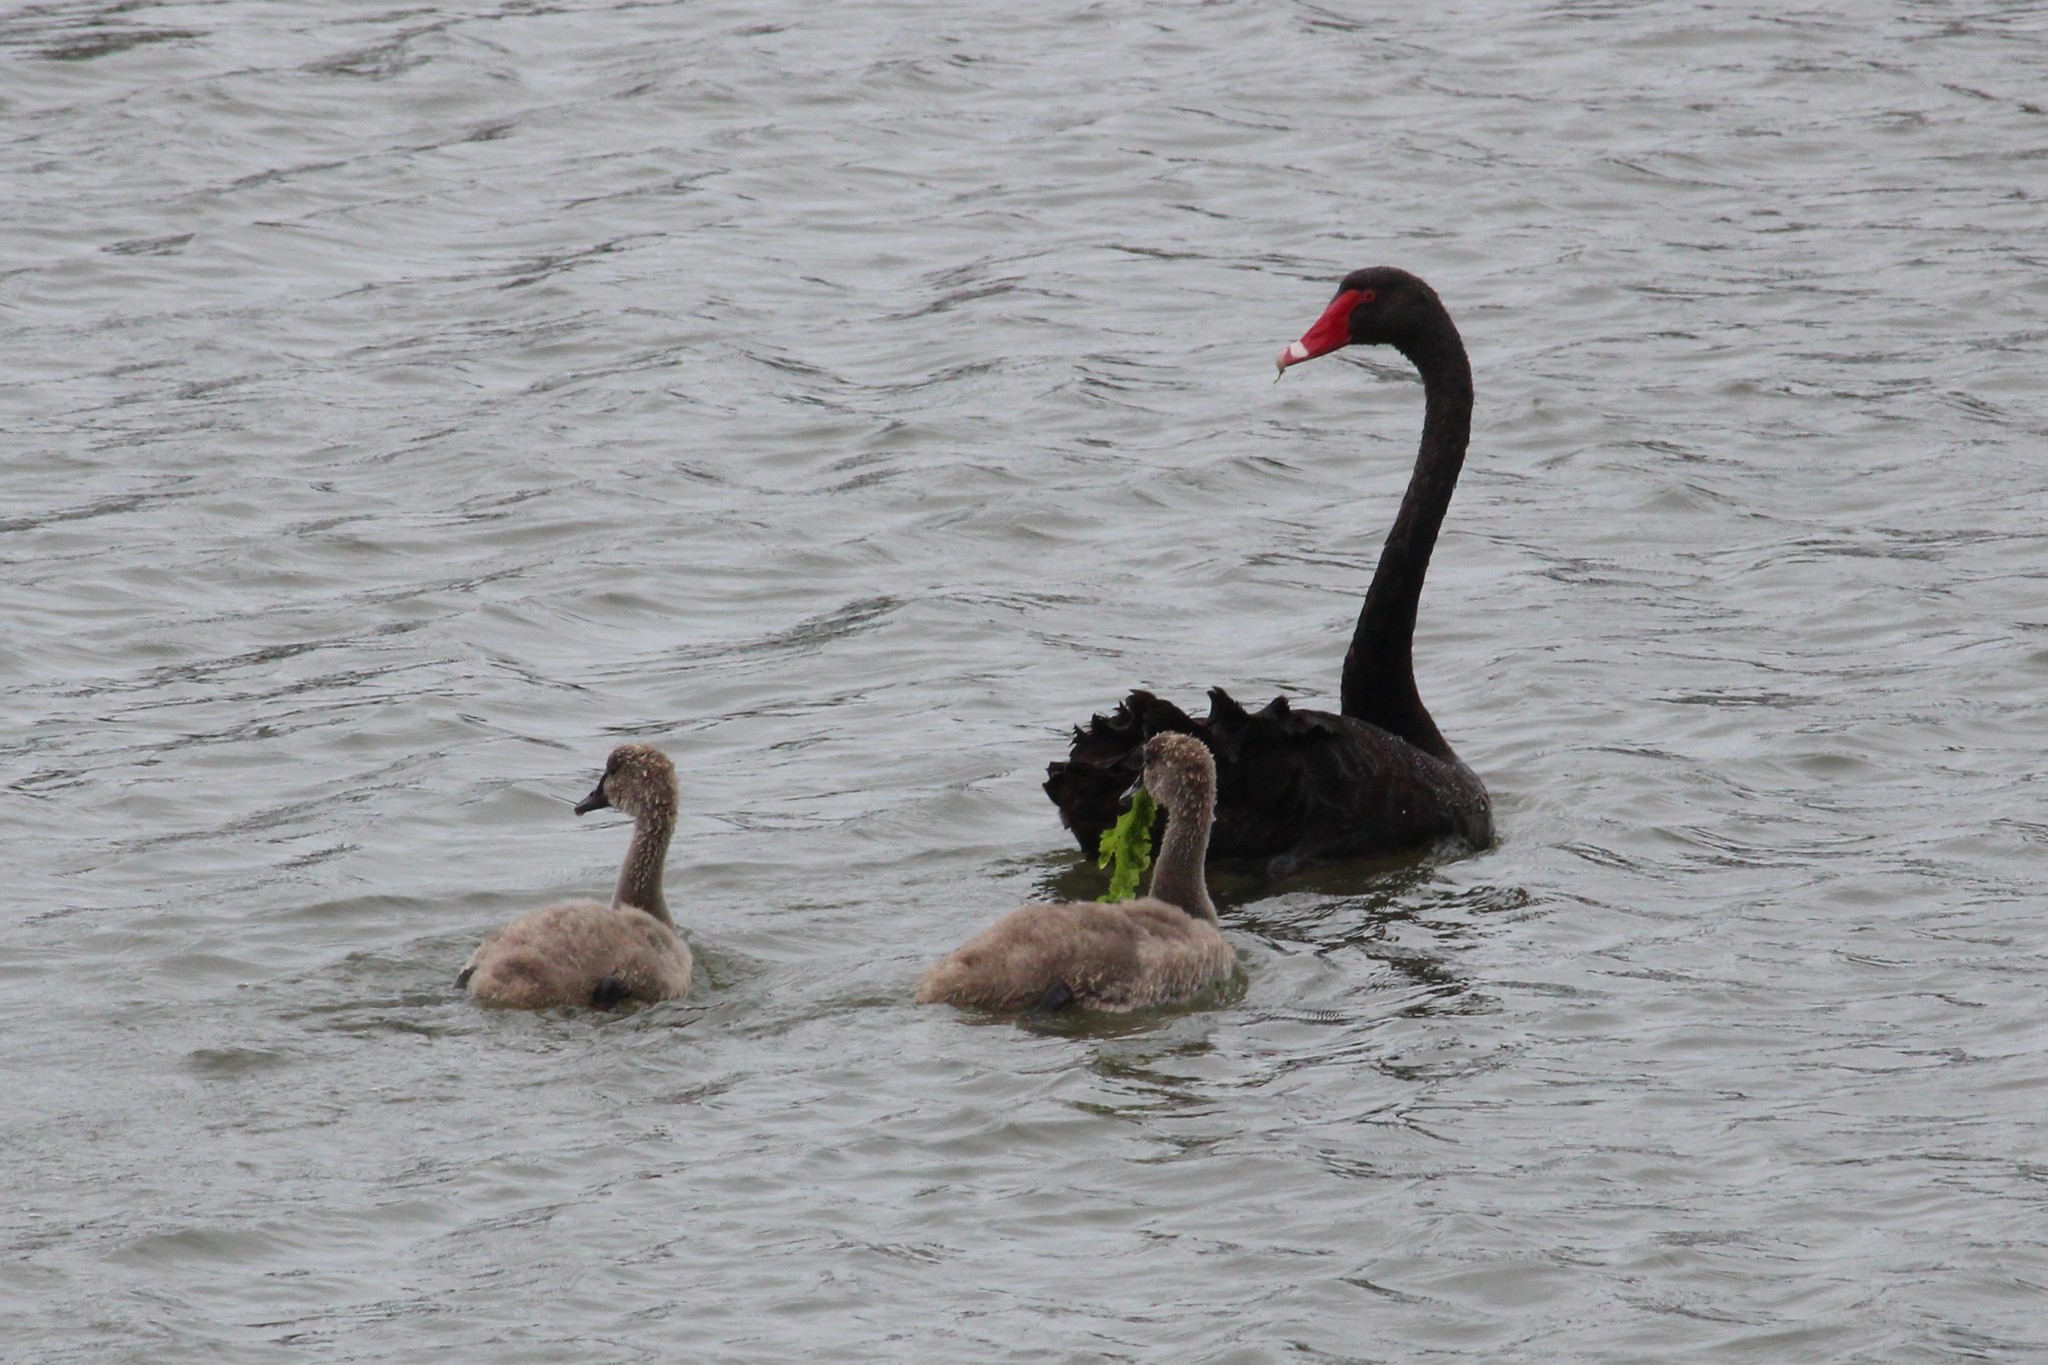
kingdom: Animalia
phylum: Chordata
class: Aves
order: Anseriformes
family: Anatidae
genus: Cygnus
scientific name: Cygnus atratus
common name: Black swan
